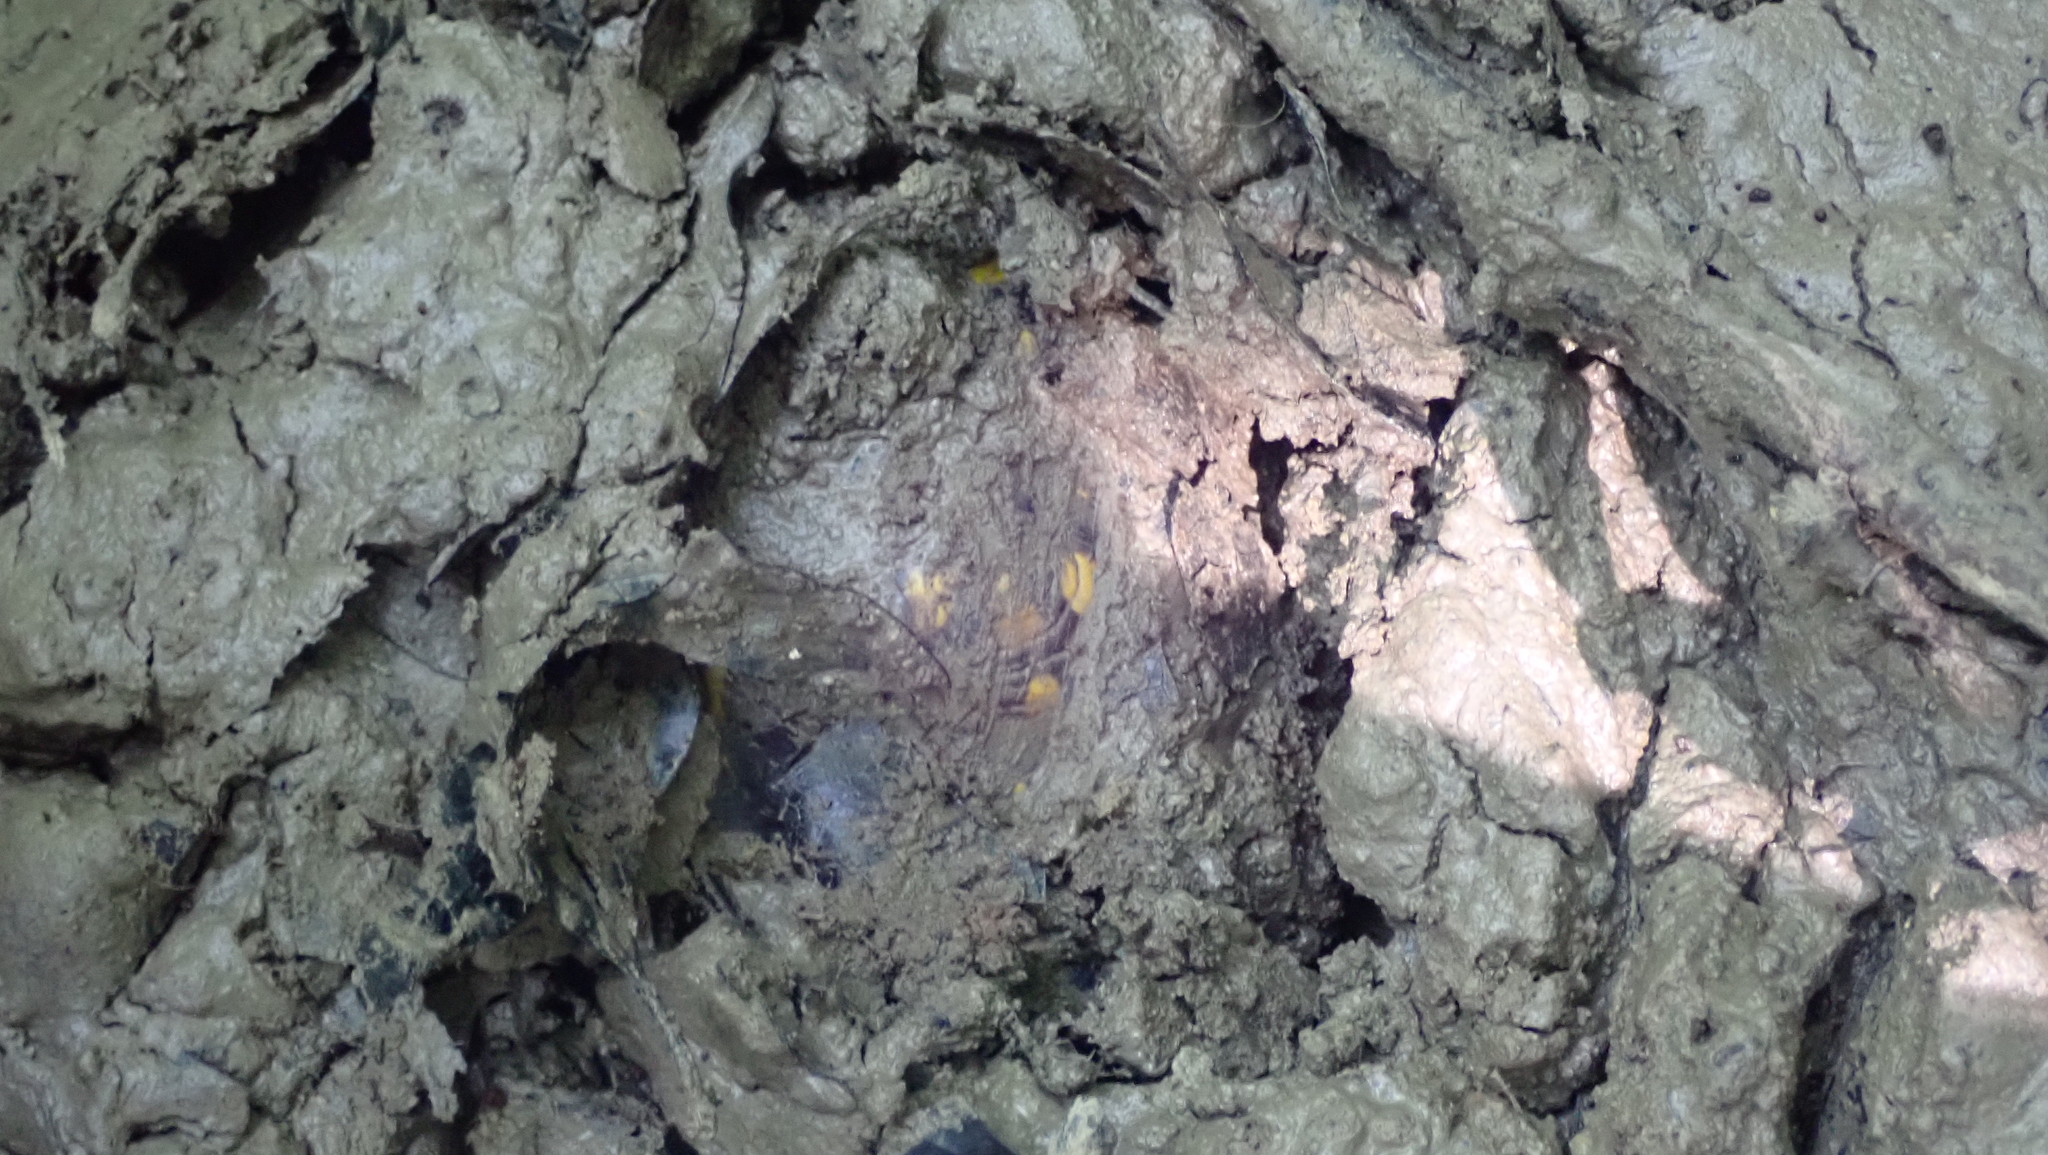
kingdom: Animalia
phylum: Chordata
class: Testudines
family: Emydidae
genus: Terrapene
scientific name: Terrapene carolina
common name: Common box turtle
